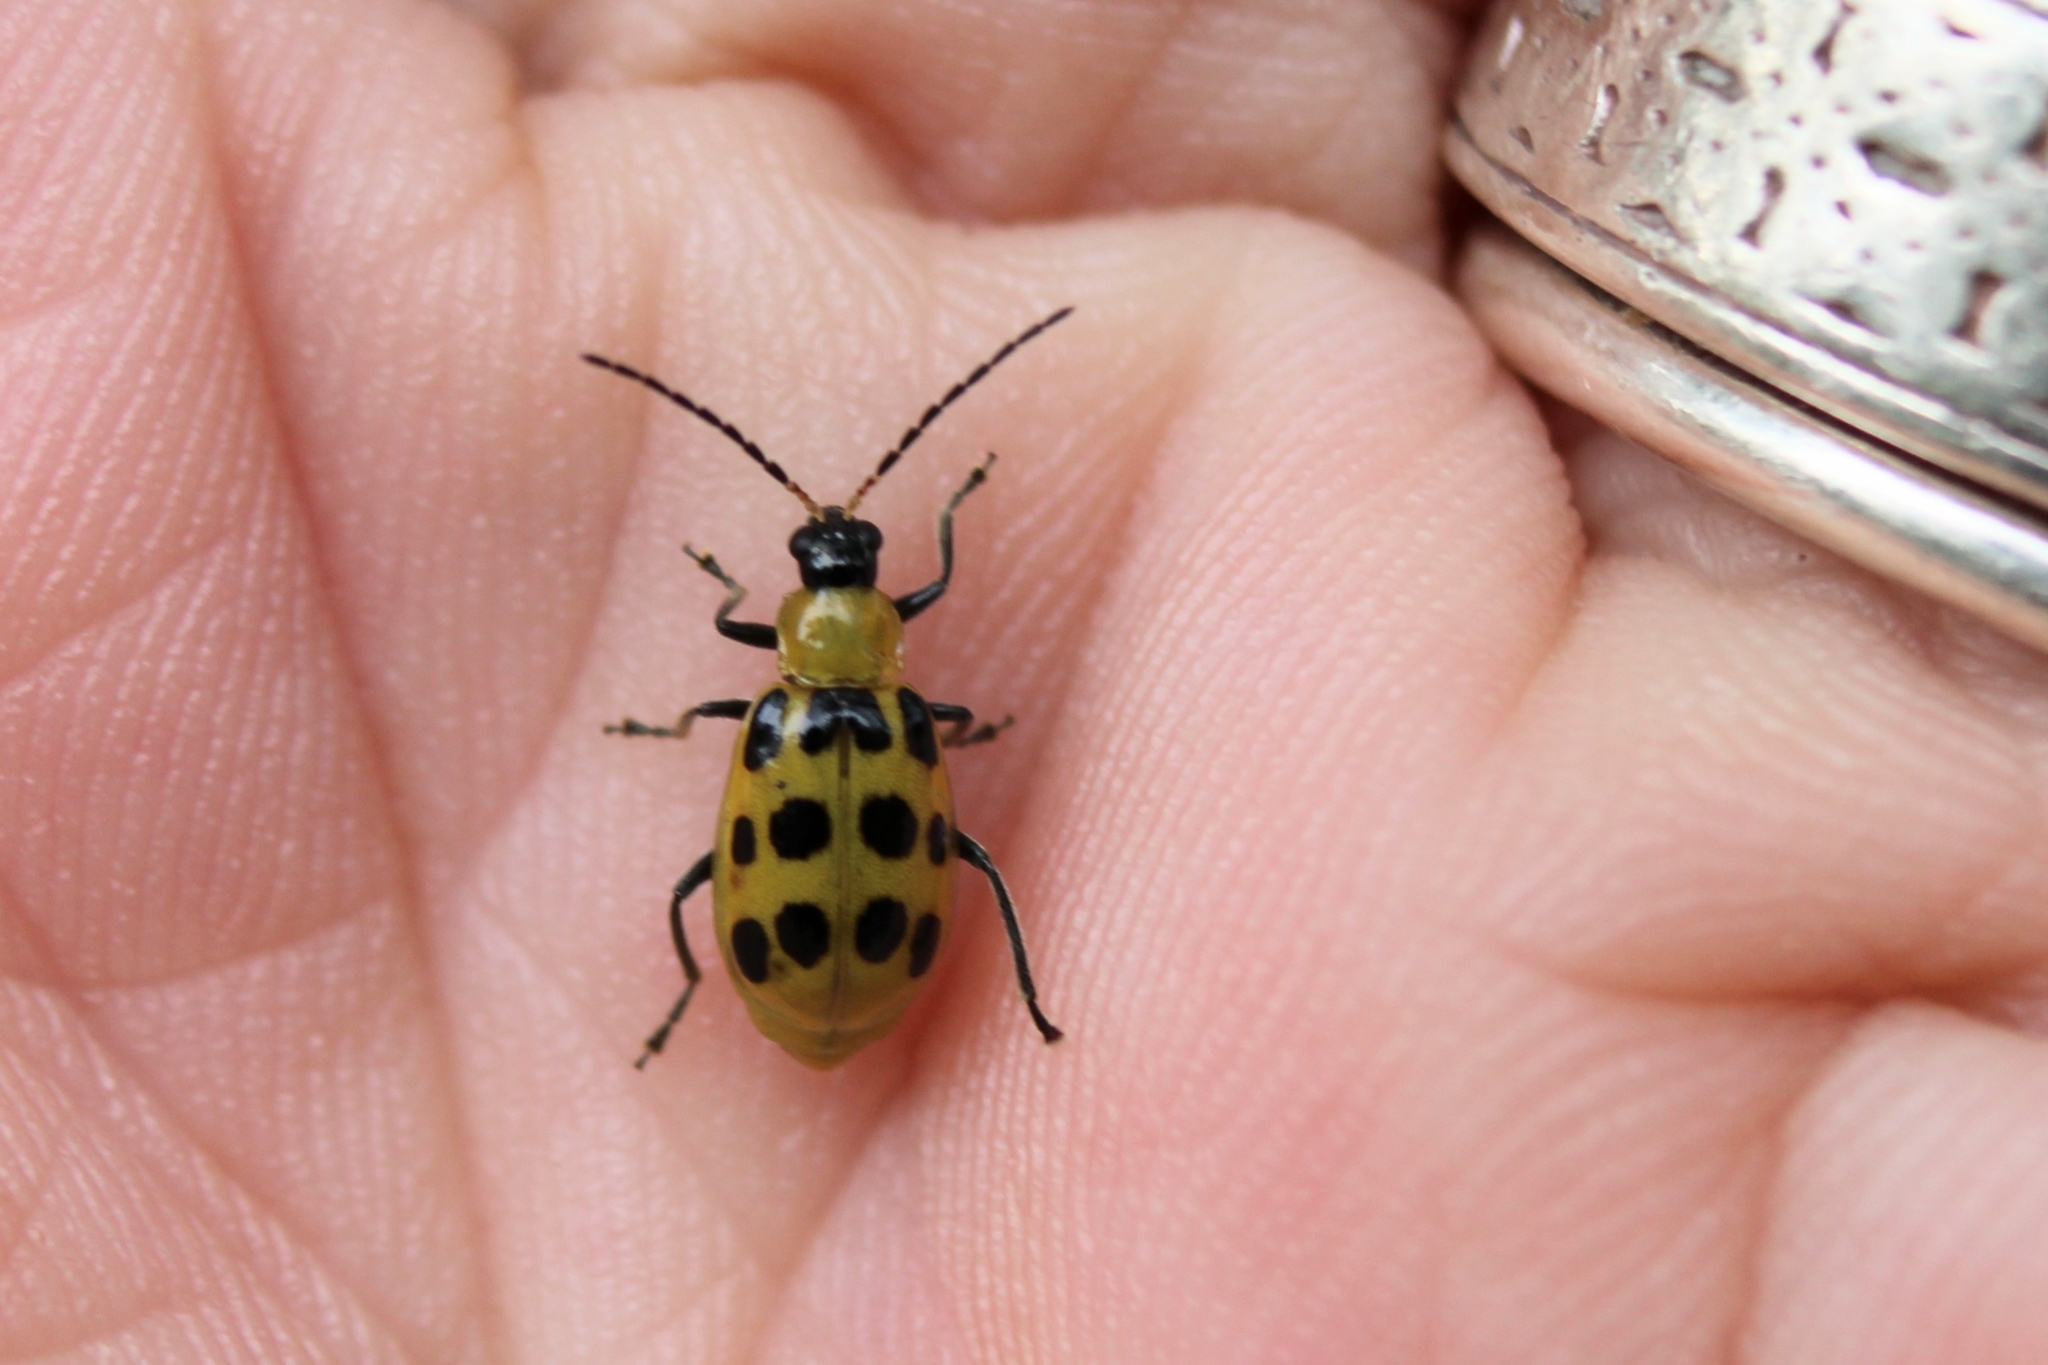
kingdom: Animalia
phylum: Arthropoda
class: Insecta
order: Coleoptera
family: Chrysomelidae
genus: Diabrotica
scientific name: Diabrotica undecimpunctata
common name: Spotted cucumber beetle
